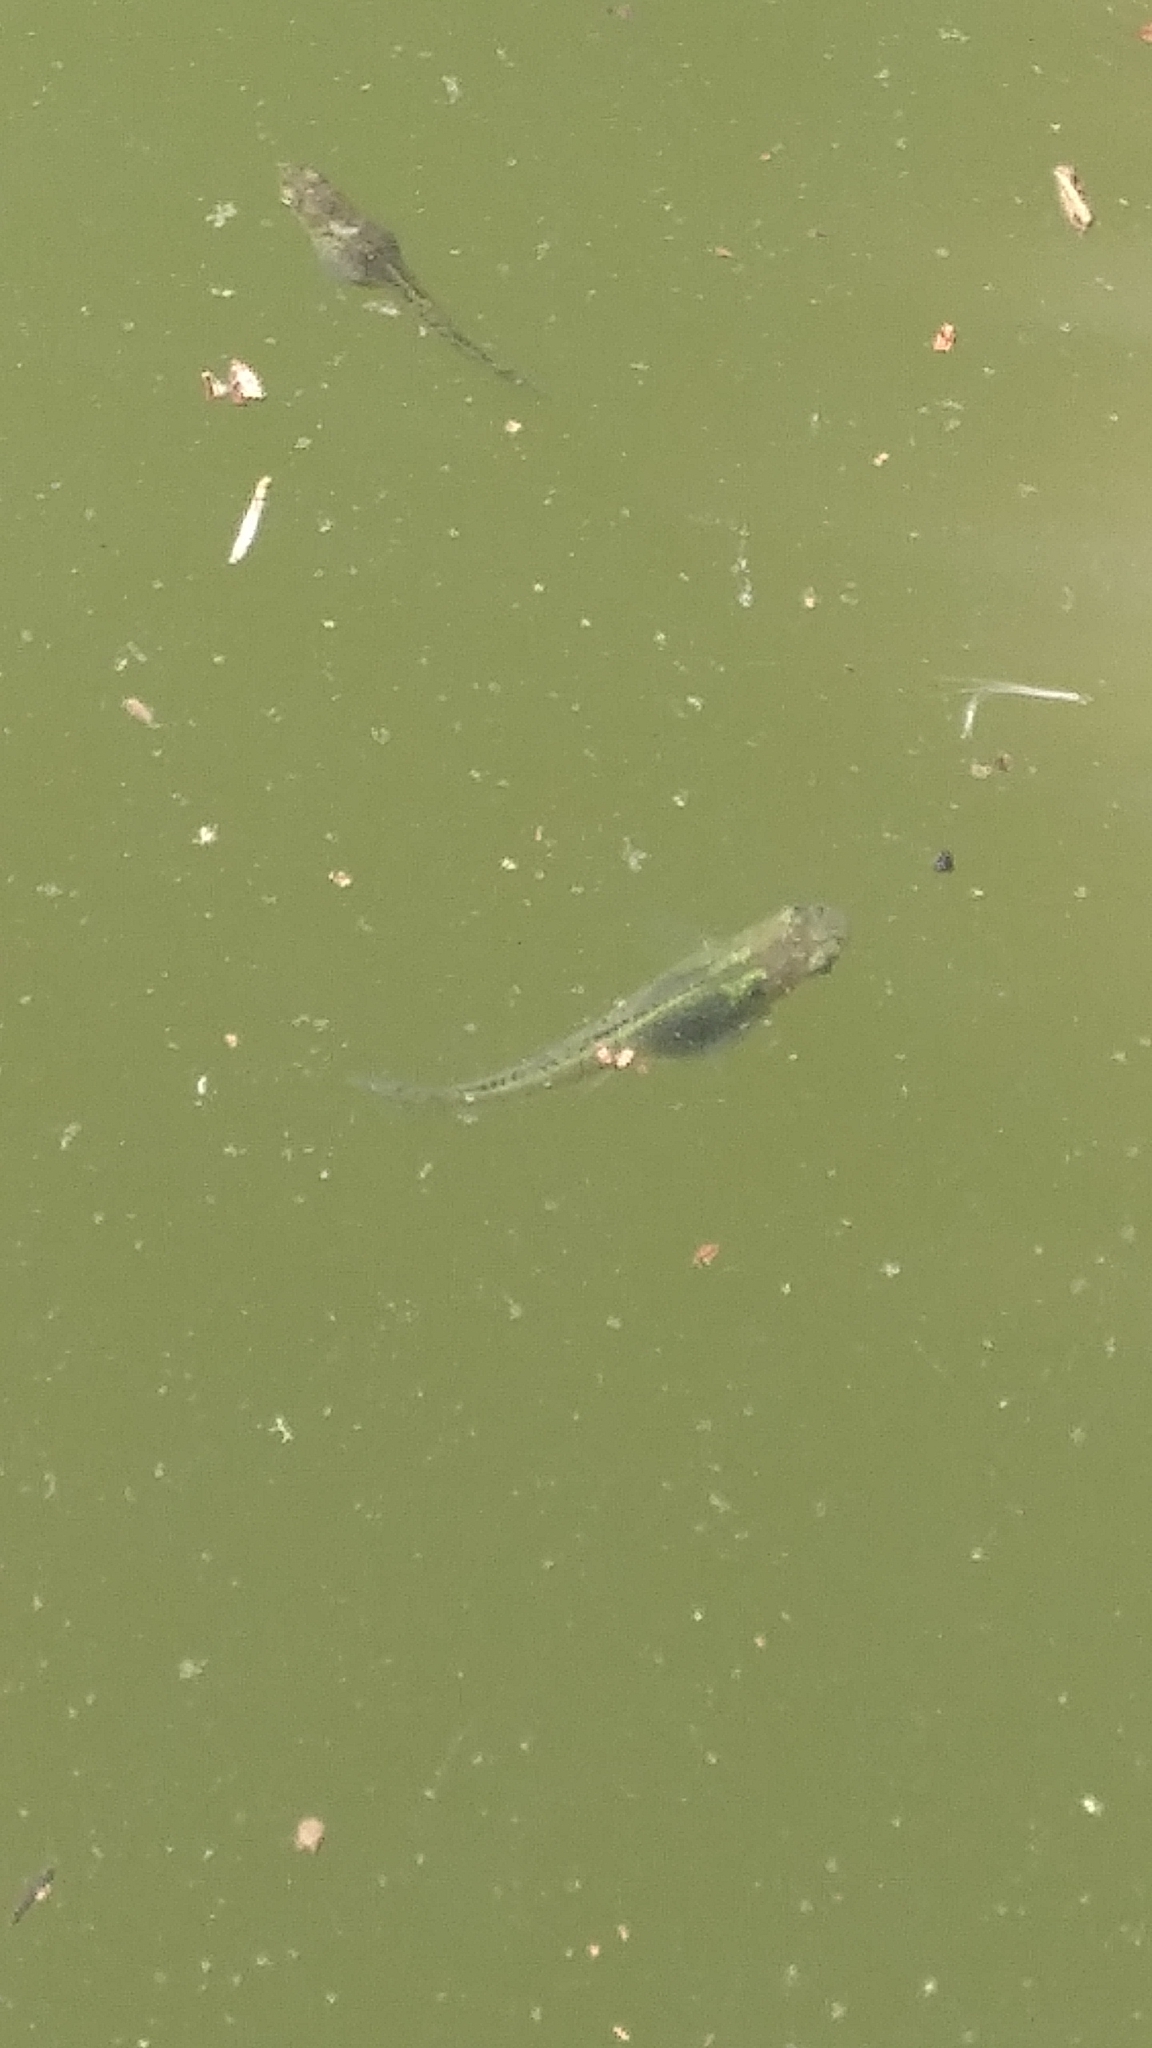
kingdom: Animalia
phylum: Chordata
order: Cyprinodontiformes
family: Poeciliidae
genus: Gambusia
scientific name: Gambusia affinis
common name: Mosquitofish
